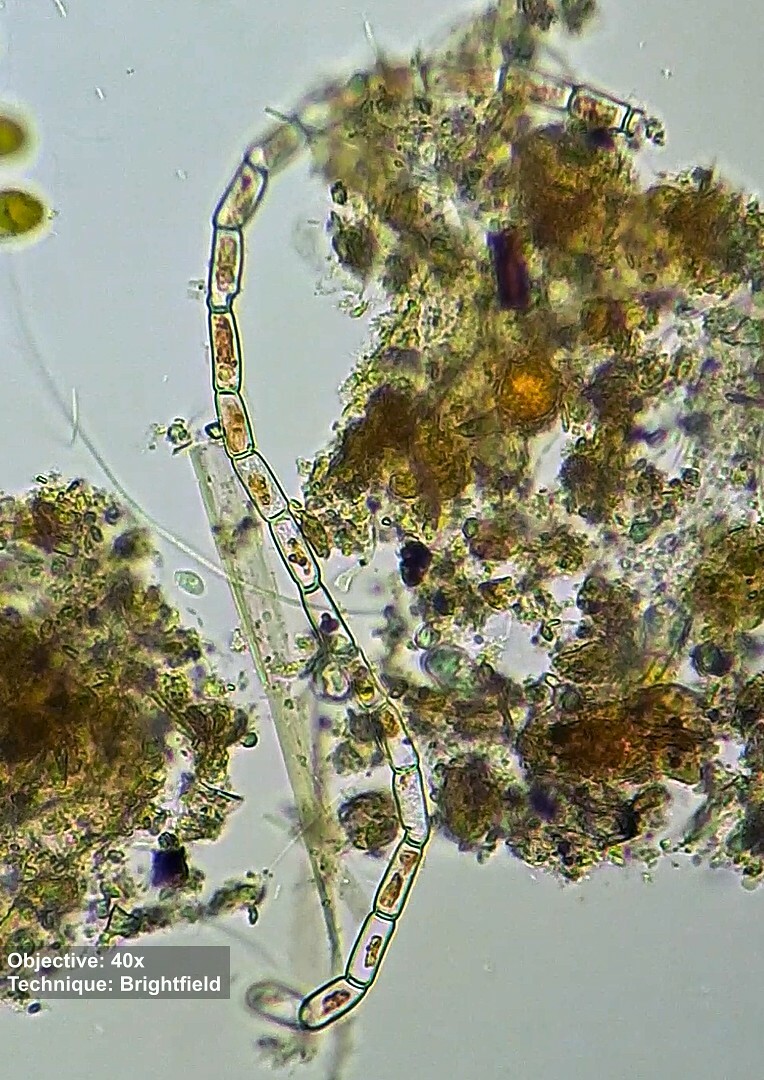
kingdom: Plantae
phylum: Chlorophyta
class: Chlorophyceae
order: Oedogoniales
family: Oedogoniaceae
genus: Oedogonium
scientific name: Oedogonium
